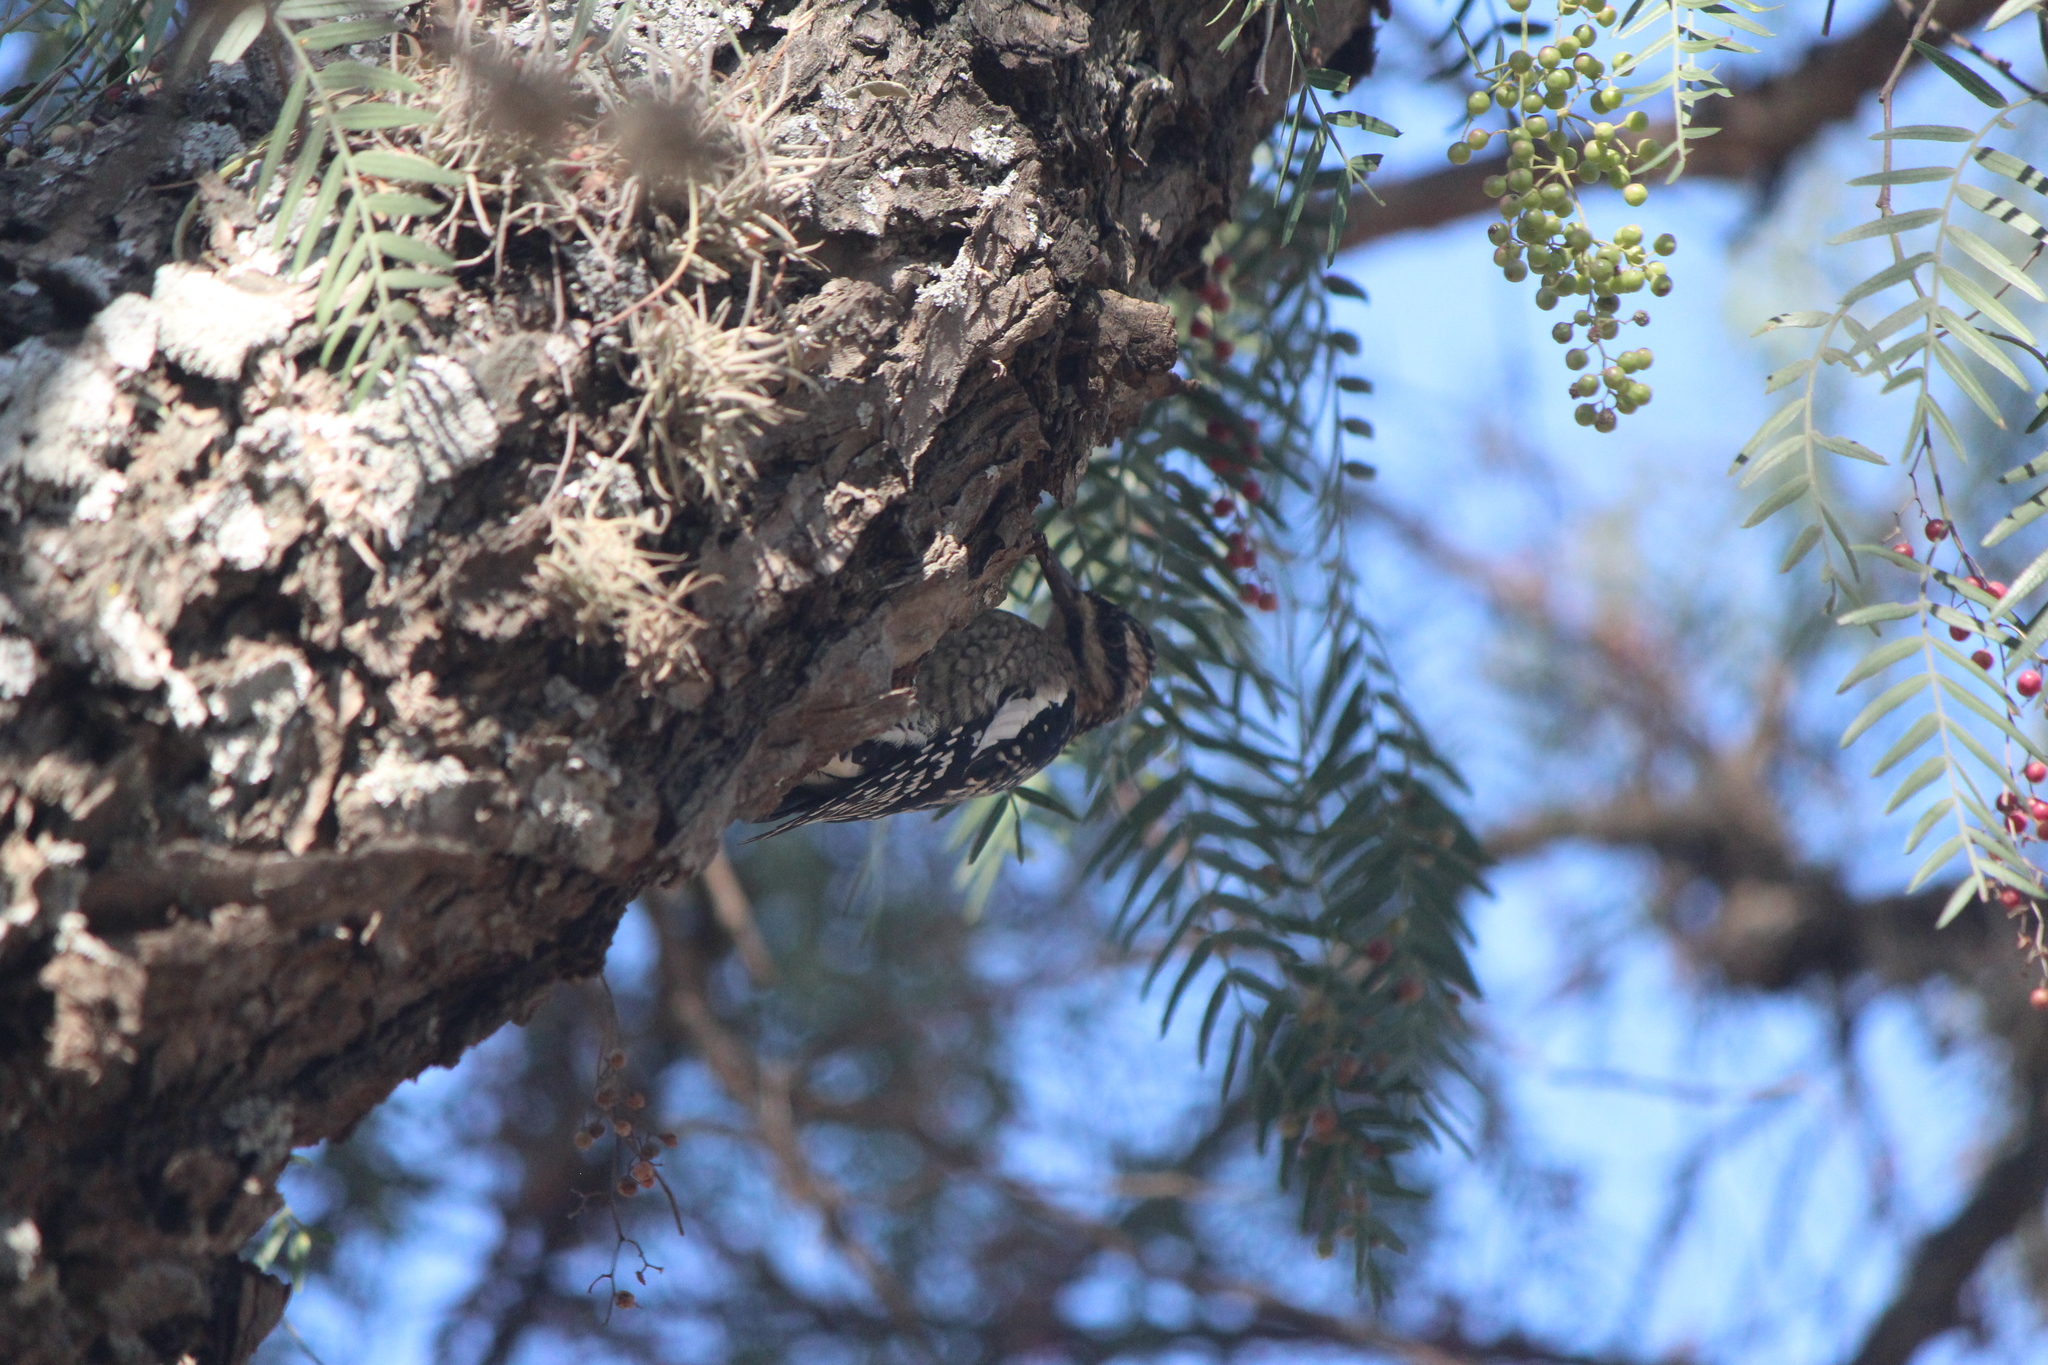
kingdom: Animalia
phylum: Chordata
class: Aves
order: Piciformes
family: Picidae
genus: Sphyrapicus
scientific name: Sphyrapicus varius
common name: Yellow-bellied sapsucker
